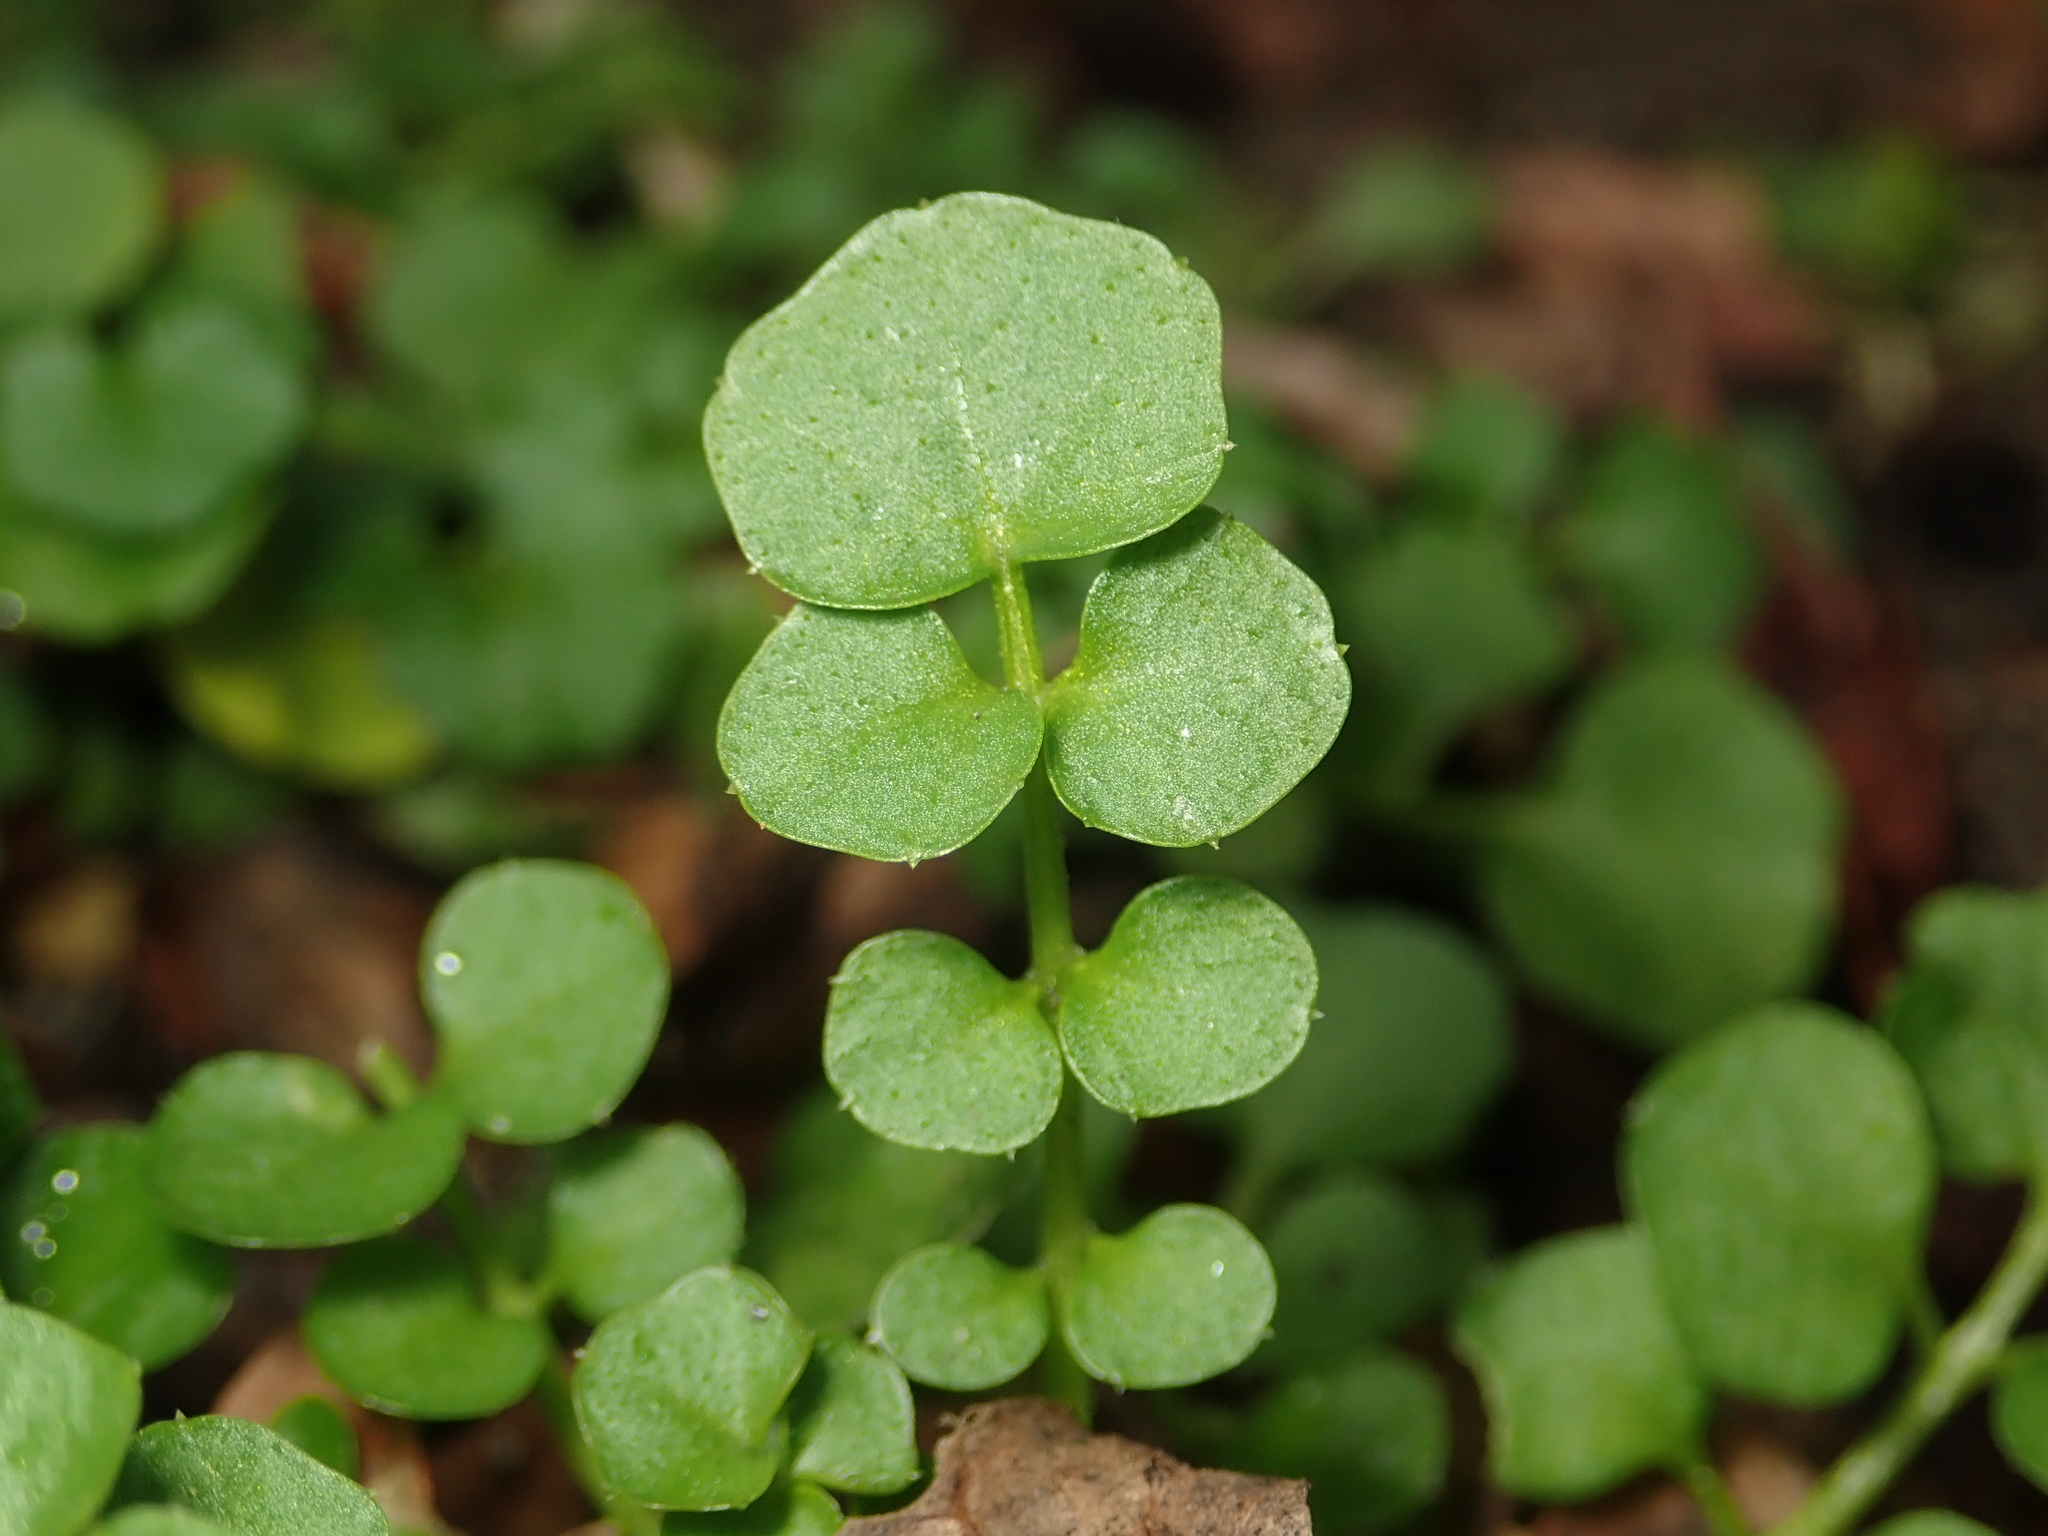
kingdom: Plantae
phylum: Tracheophyta
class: Magnoliopsida
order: Brassicales
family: Brassicaceae
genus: Cardamine
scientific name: Cardamine hirsuta
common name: Hairy bittercress
